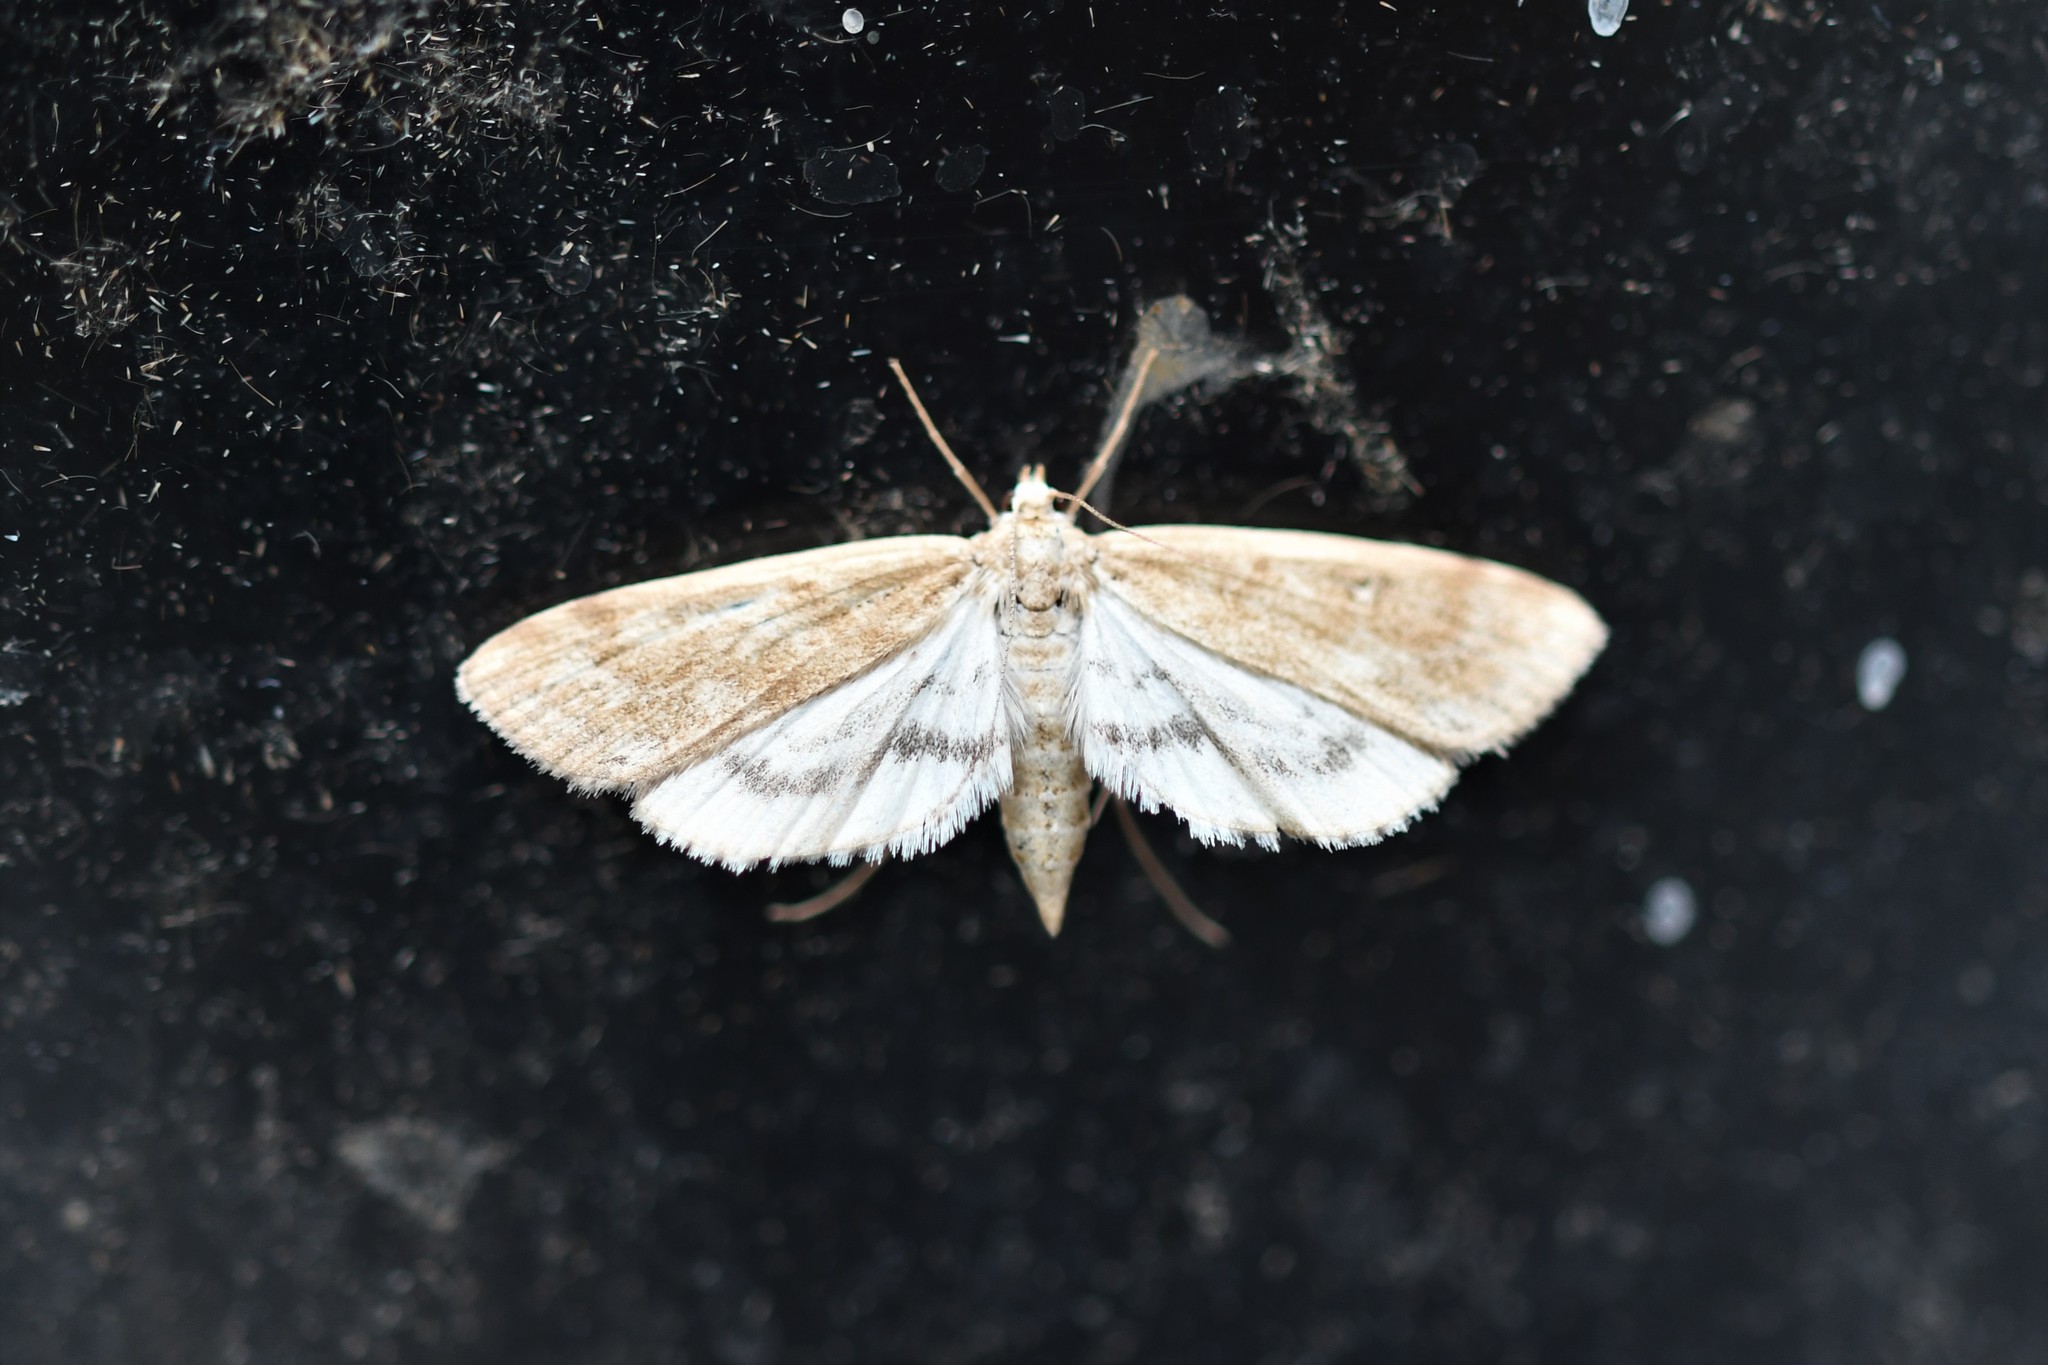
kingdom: Animalia
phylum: Arthropoda
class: Insecta
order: Lepidoptera
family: Crambidae
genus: Parapoynx
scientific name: Parapoynx stratiotata
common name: Ringed china-mark
